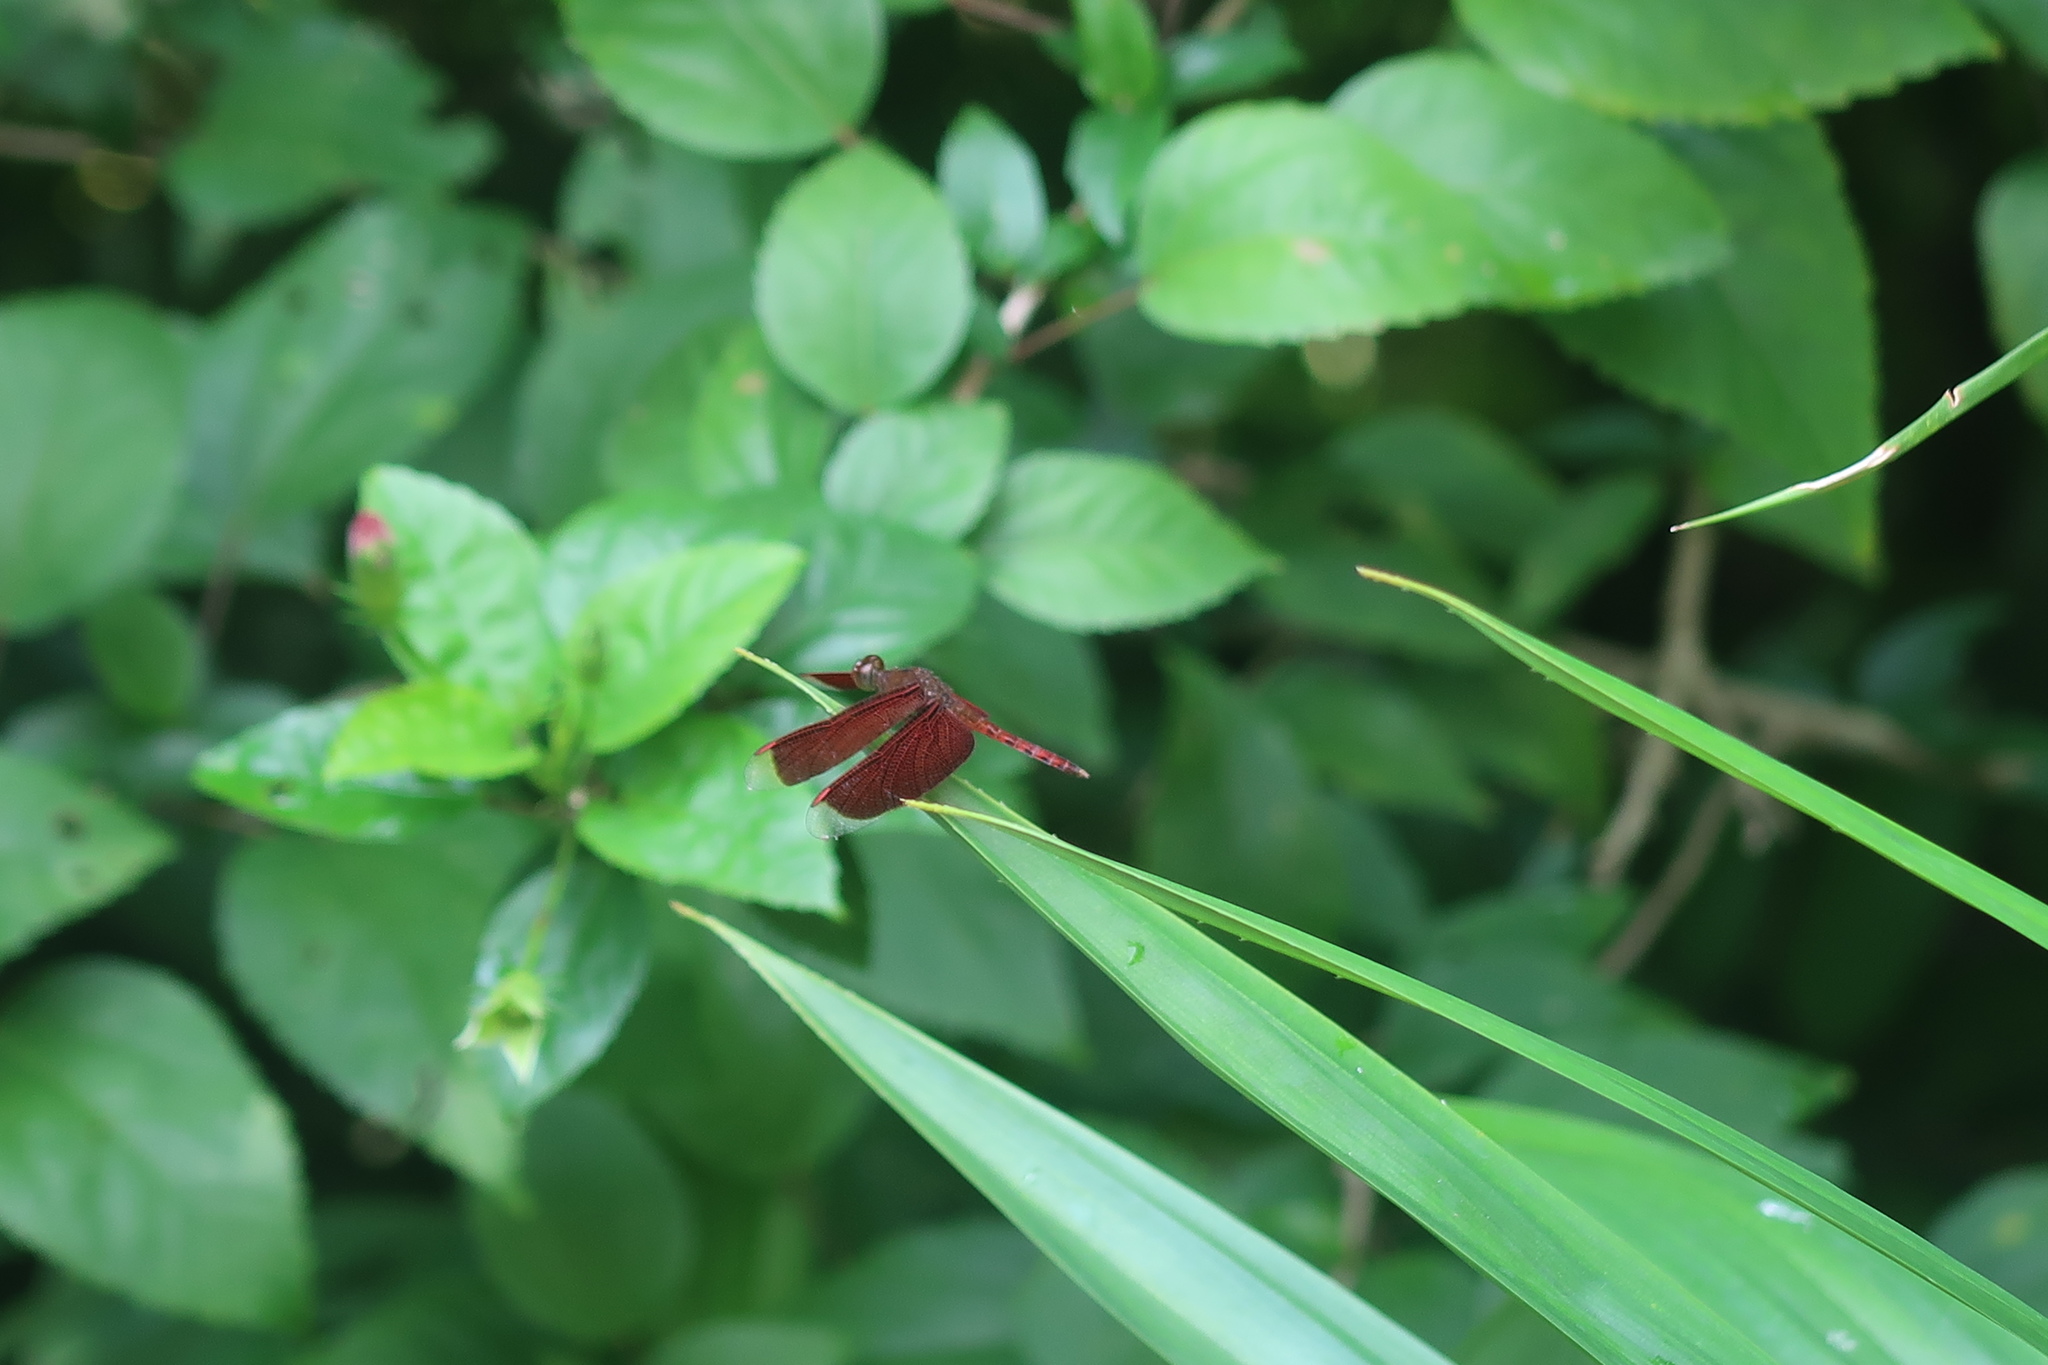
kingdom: Animalia
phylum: Arthropoda
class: Insecta
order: Odonata
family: Libellulidae
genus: Neurothemis
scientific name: Neurothemis fluctuans
